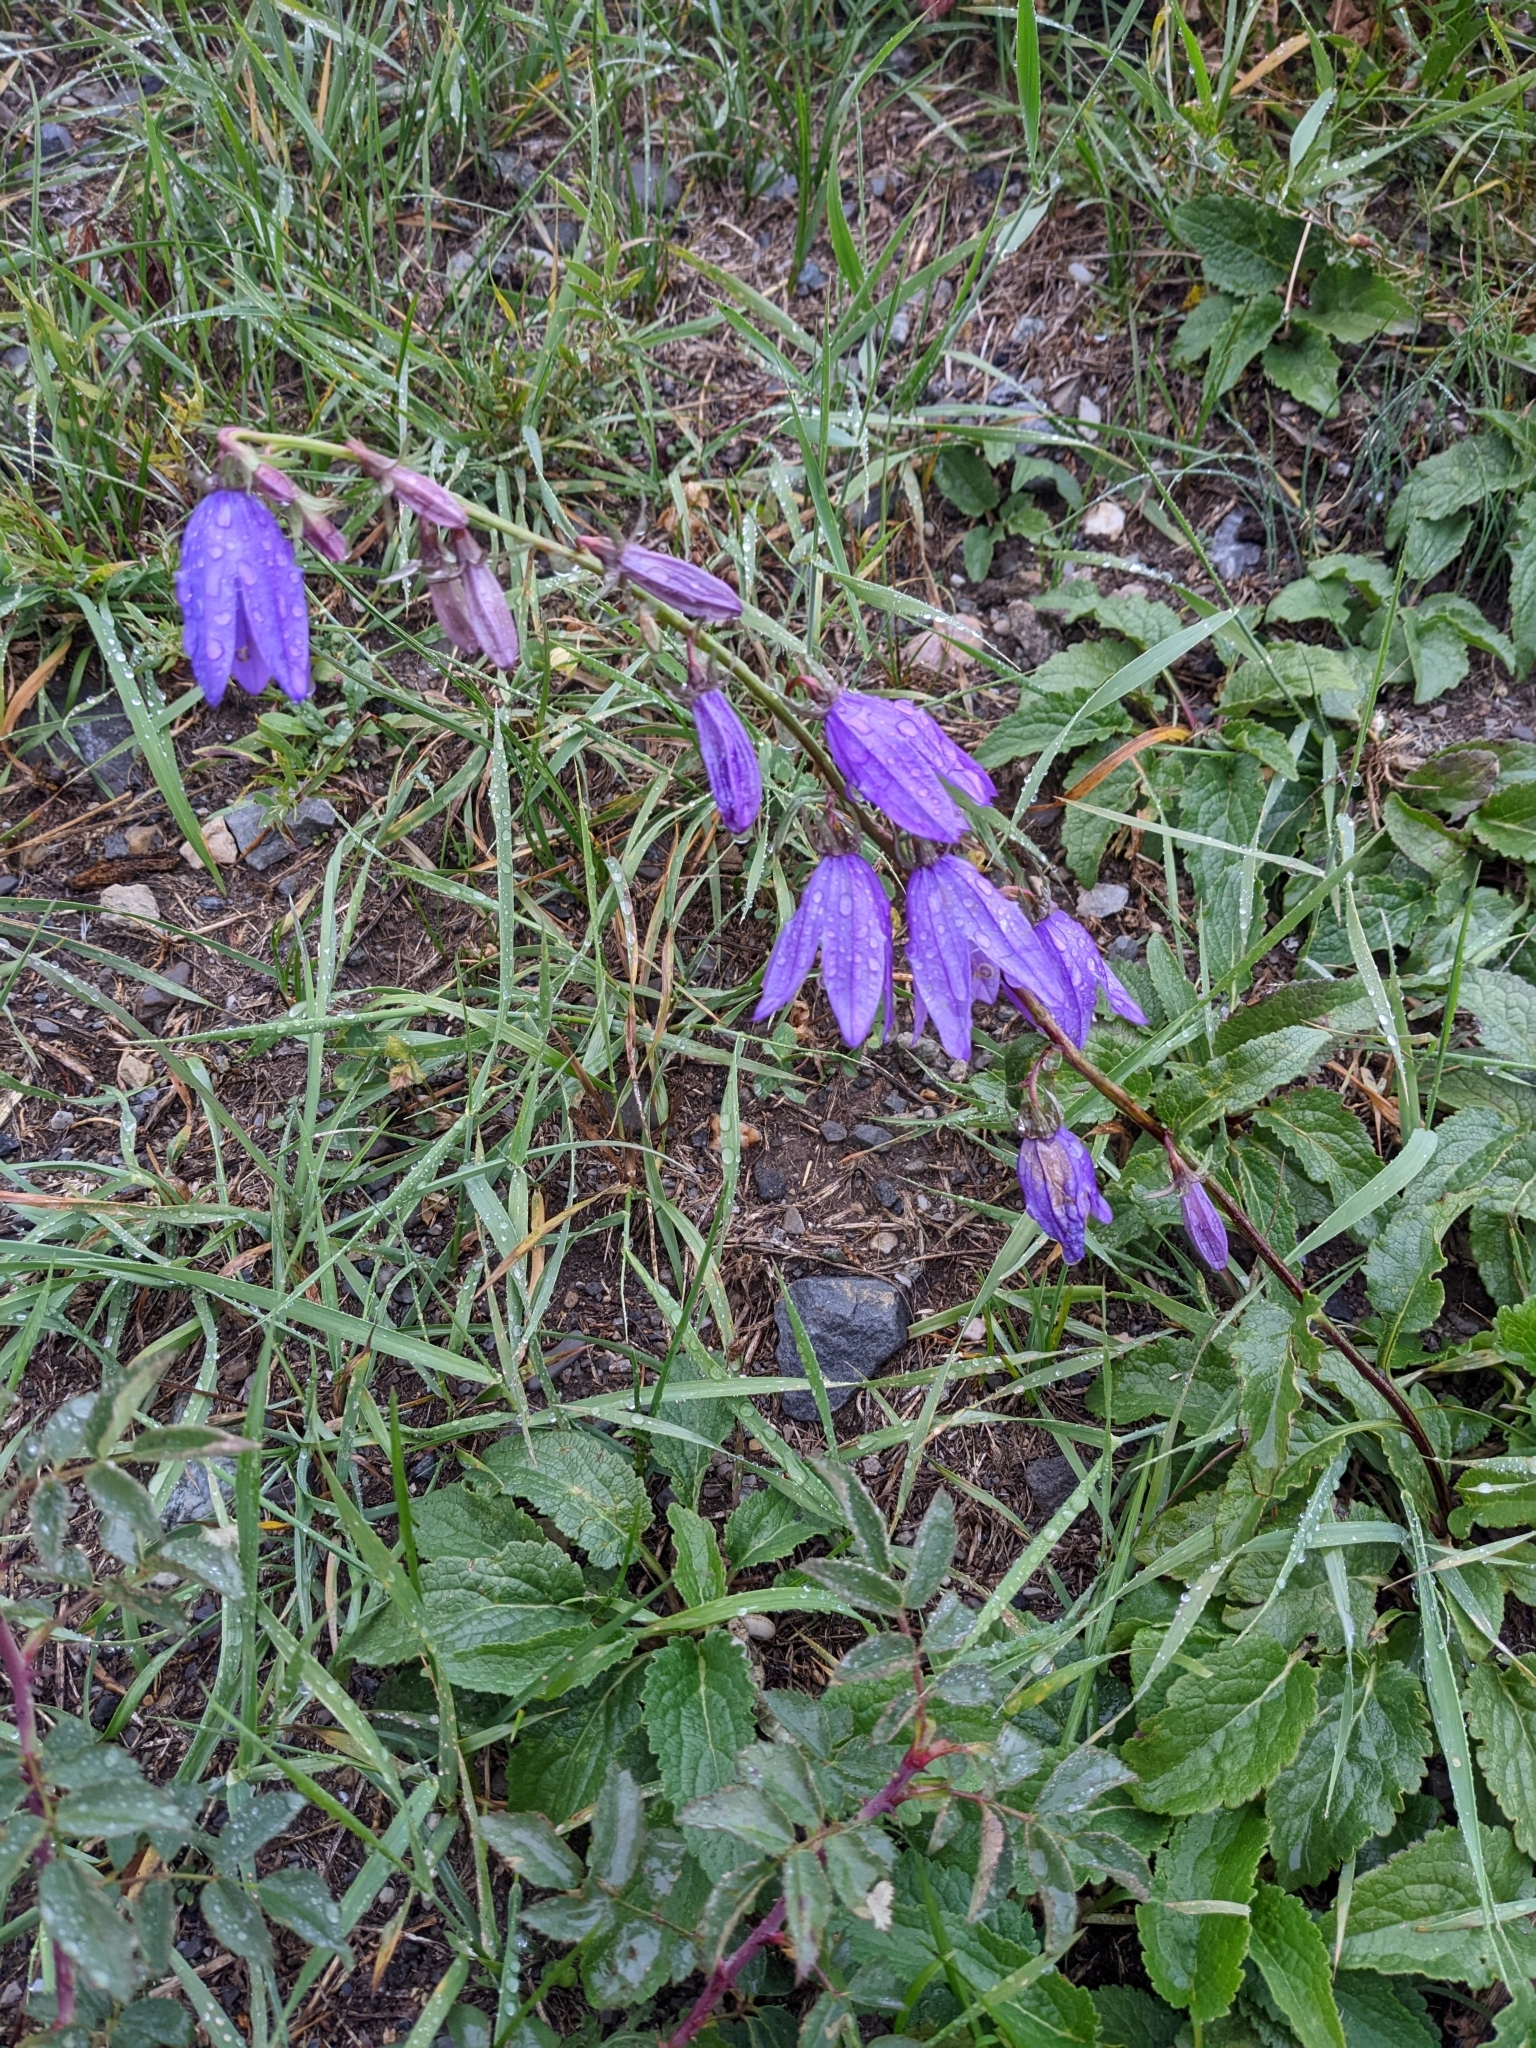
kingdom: Plantae
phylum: Tracheophyta
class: Magnoliopsida
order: Asterales
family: Campanulaceae
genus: Campanula
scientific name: Campanula rapunculoides
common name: Creeping bellflower
